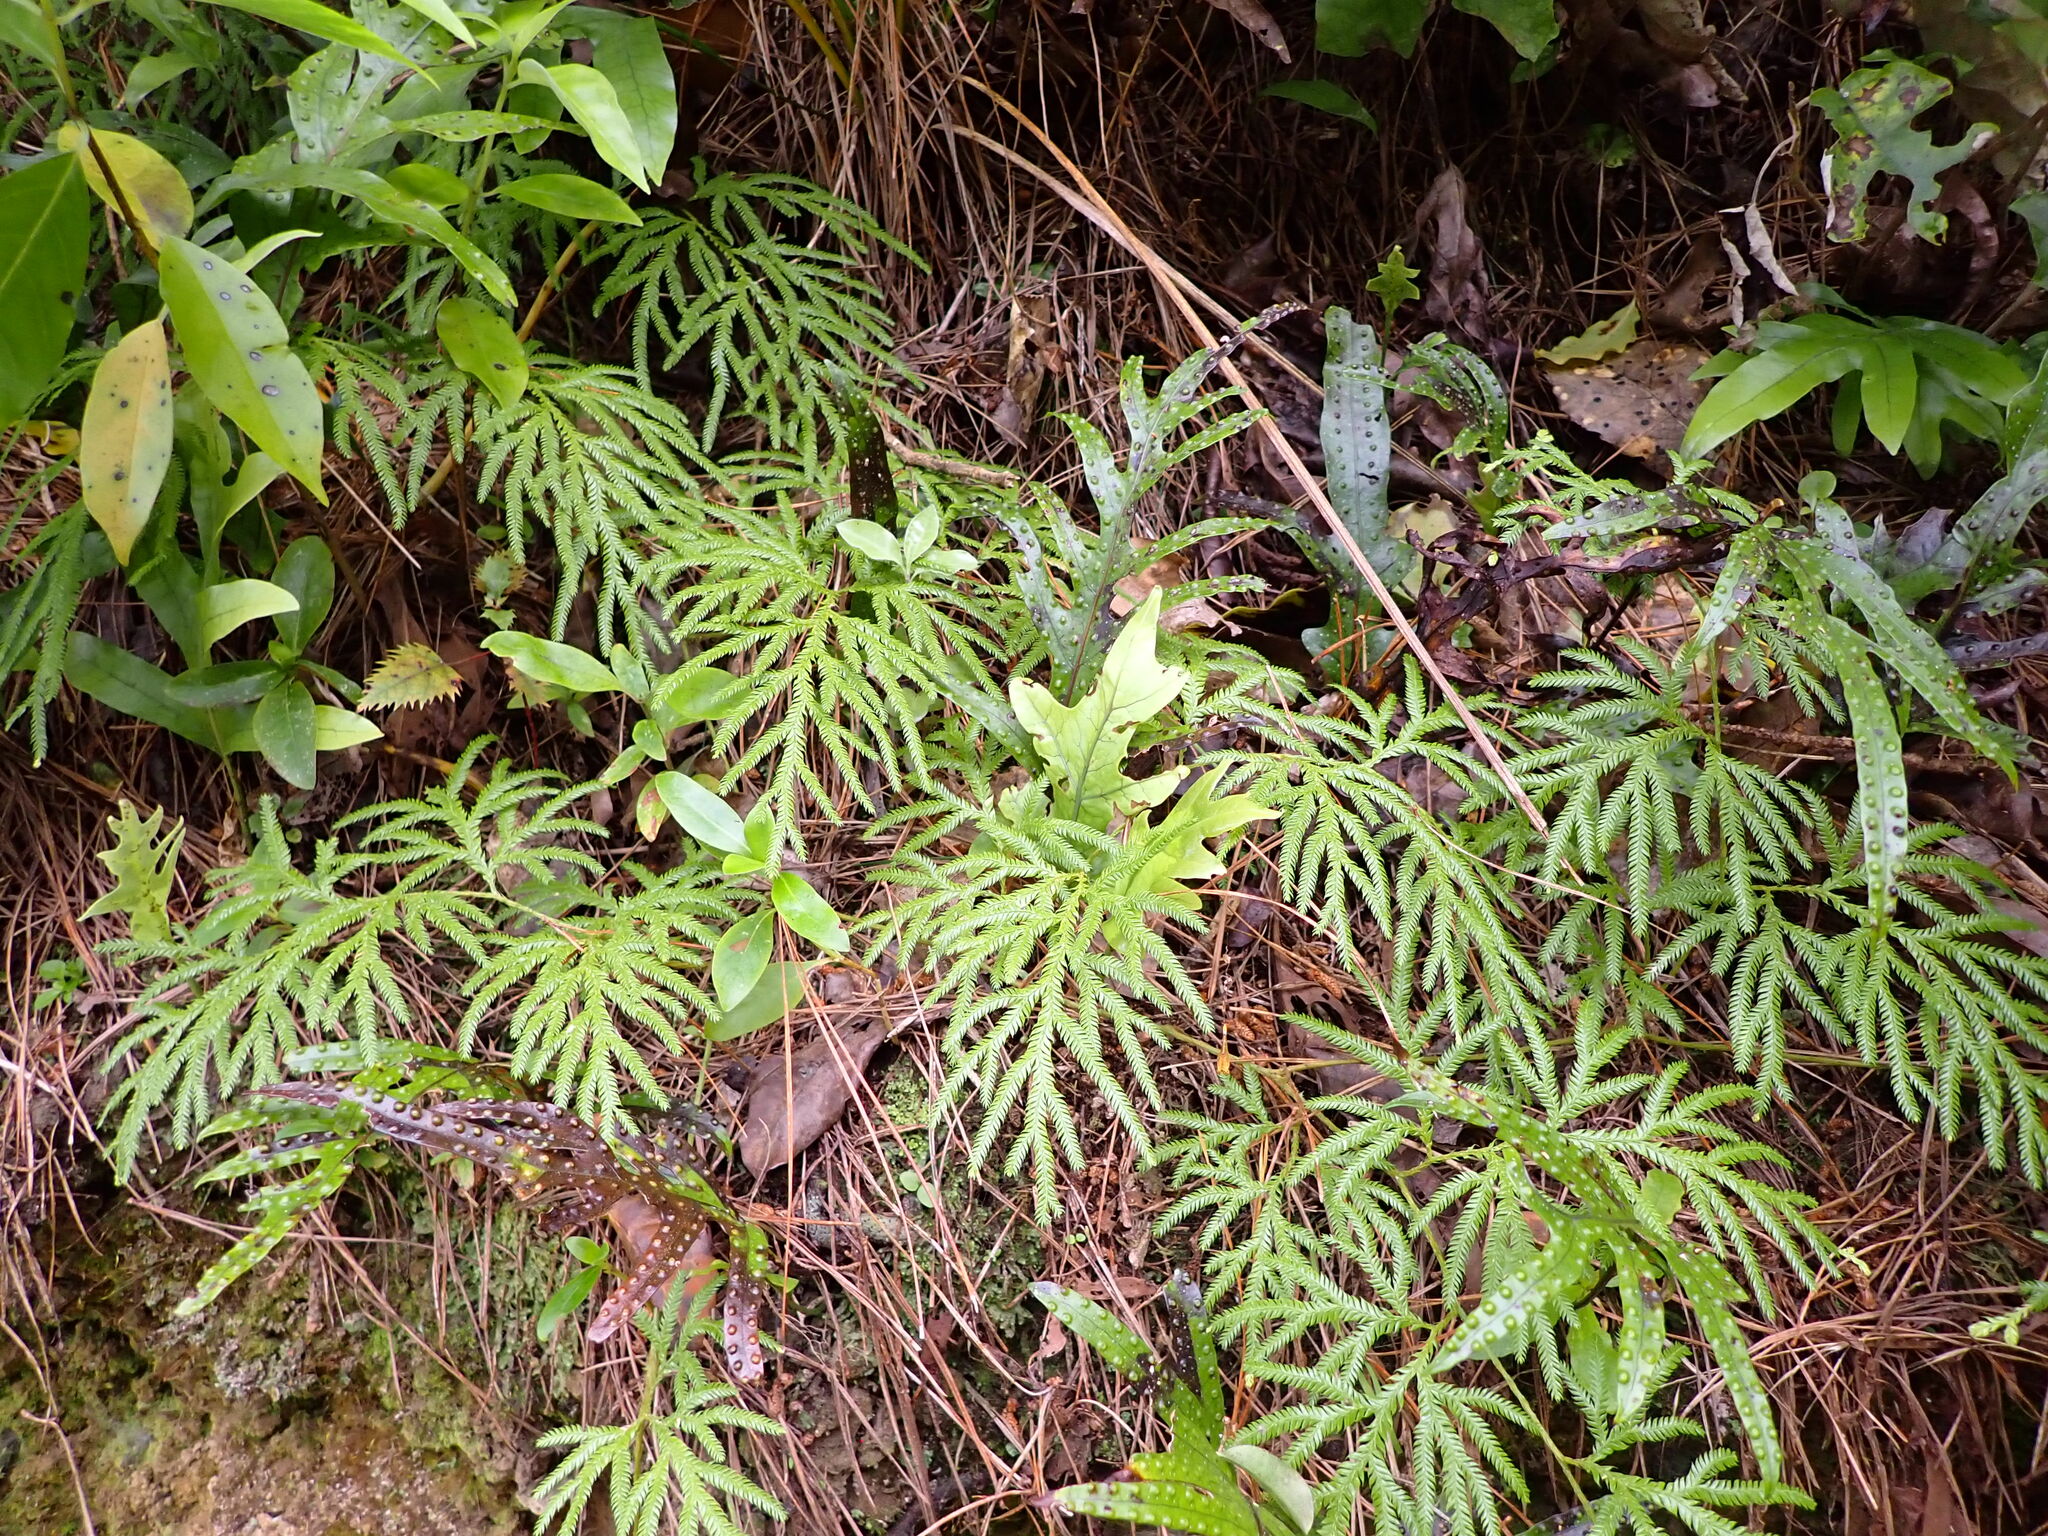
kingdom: Plantae
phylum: Tracheophyta
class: Lycopodiopsida
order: Lycopodiales
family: Lycopodiaceae
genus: Lycopodium
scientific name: Lycopodium volubile
